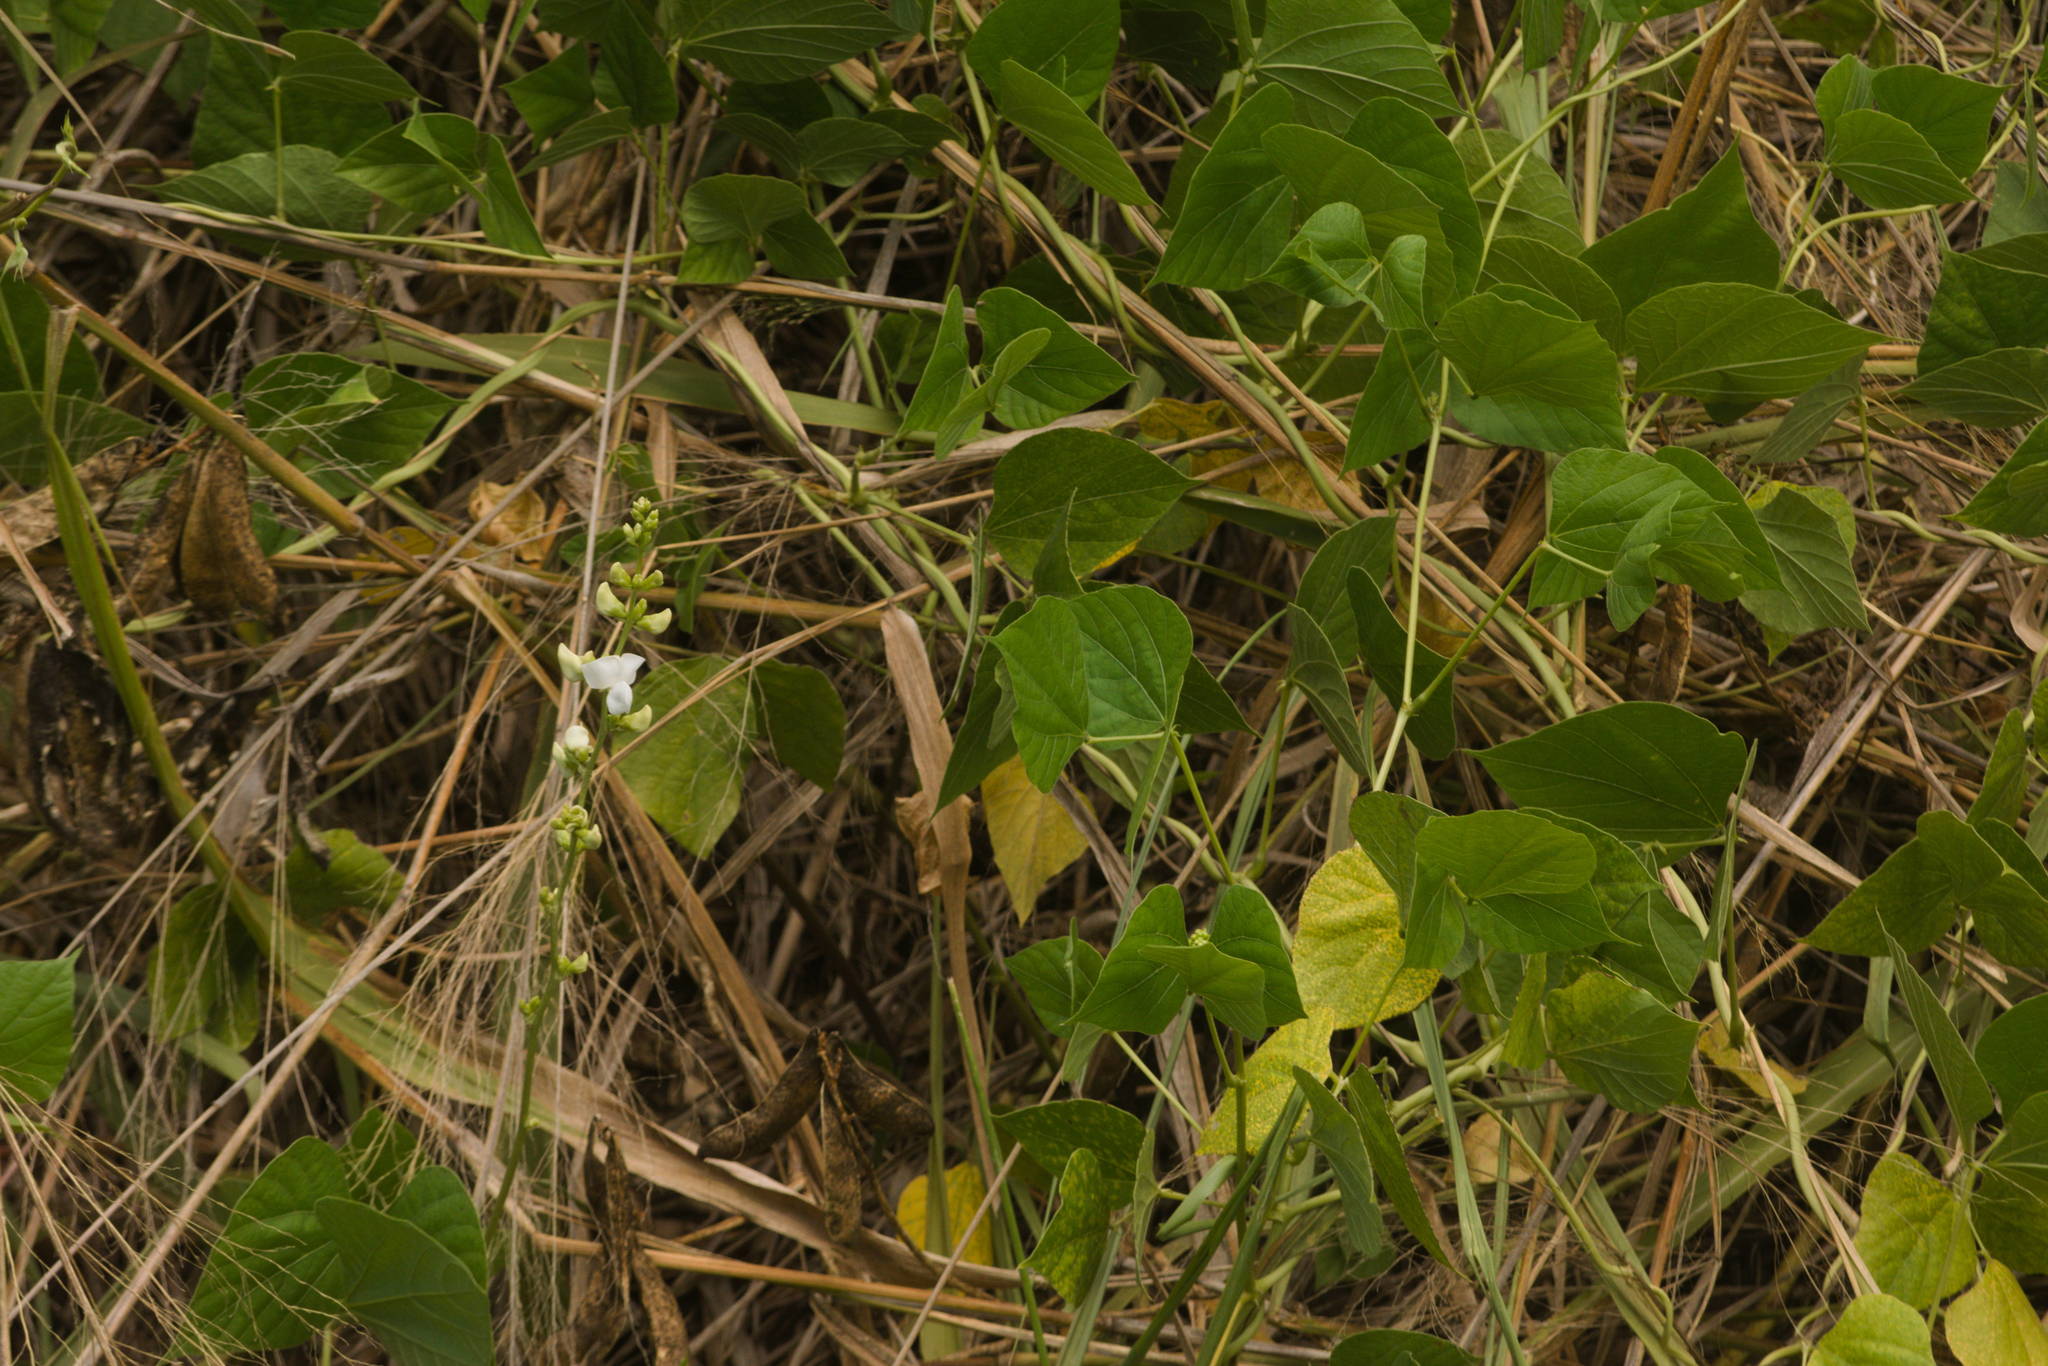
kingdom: Plantae
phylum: Tracheophyta
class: Magnoliopsida
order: Fabales
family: Fabaceae
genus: Neonotonia
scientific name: Neonotonia wightii
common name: Perennial soybean
